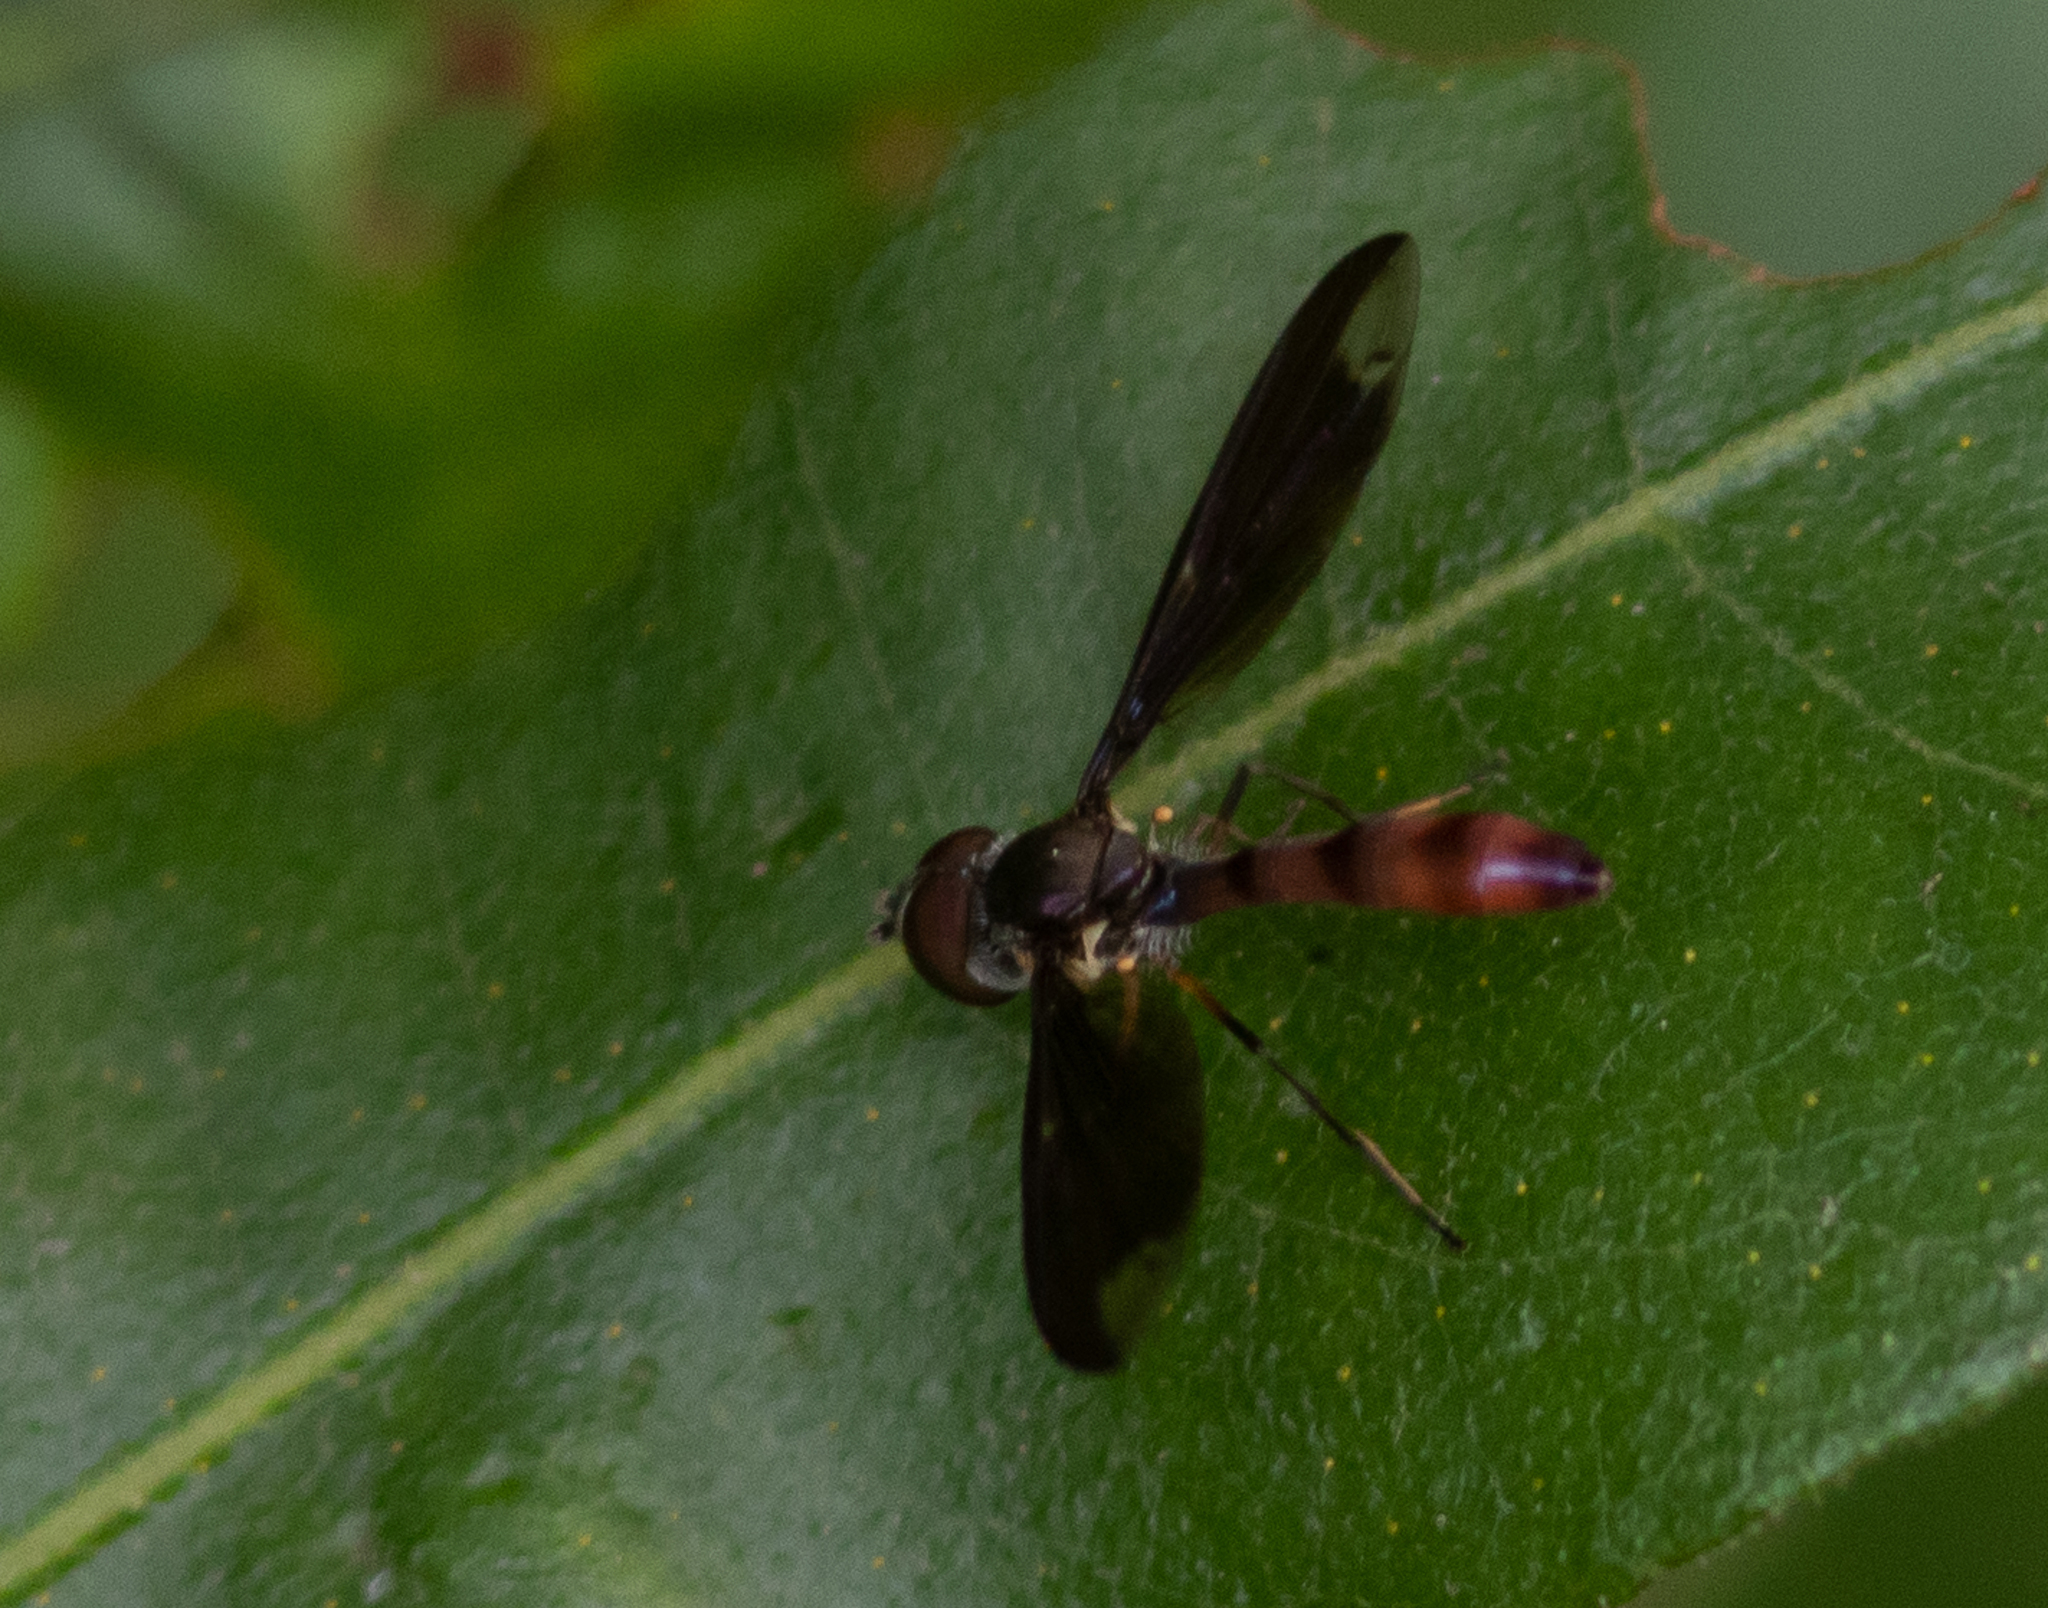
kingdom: Animalia
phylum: Arthropoda
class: Insecta
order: Diptera
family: Syrphidae
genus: Ocyptamus
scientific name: Ocyptamus fuscipennis
